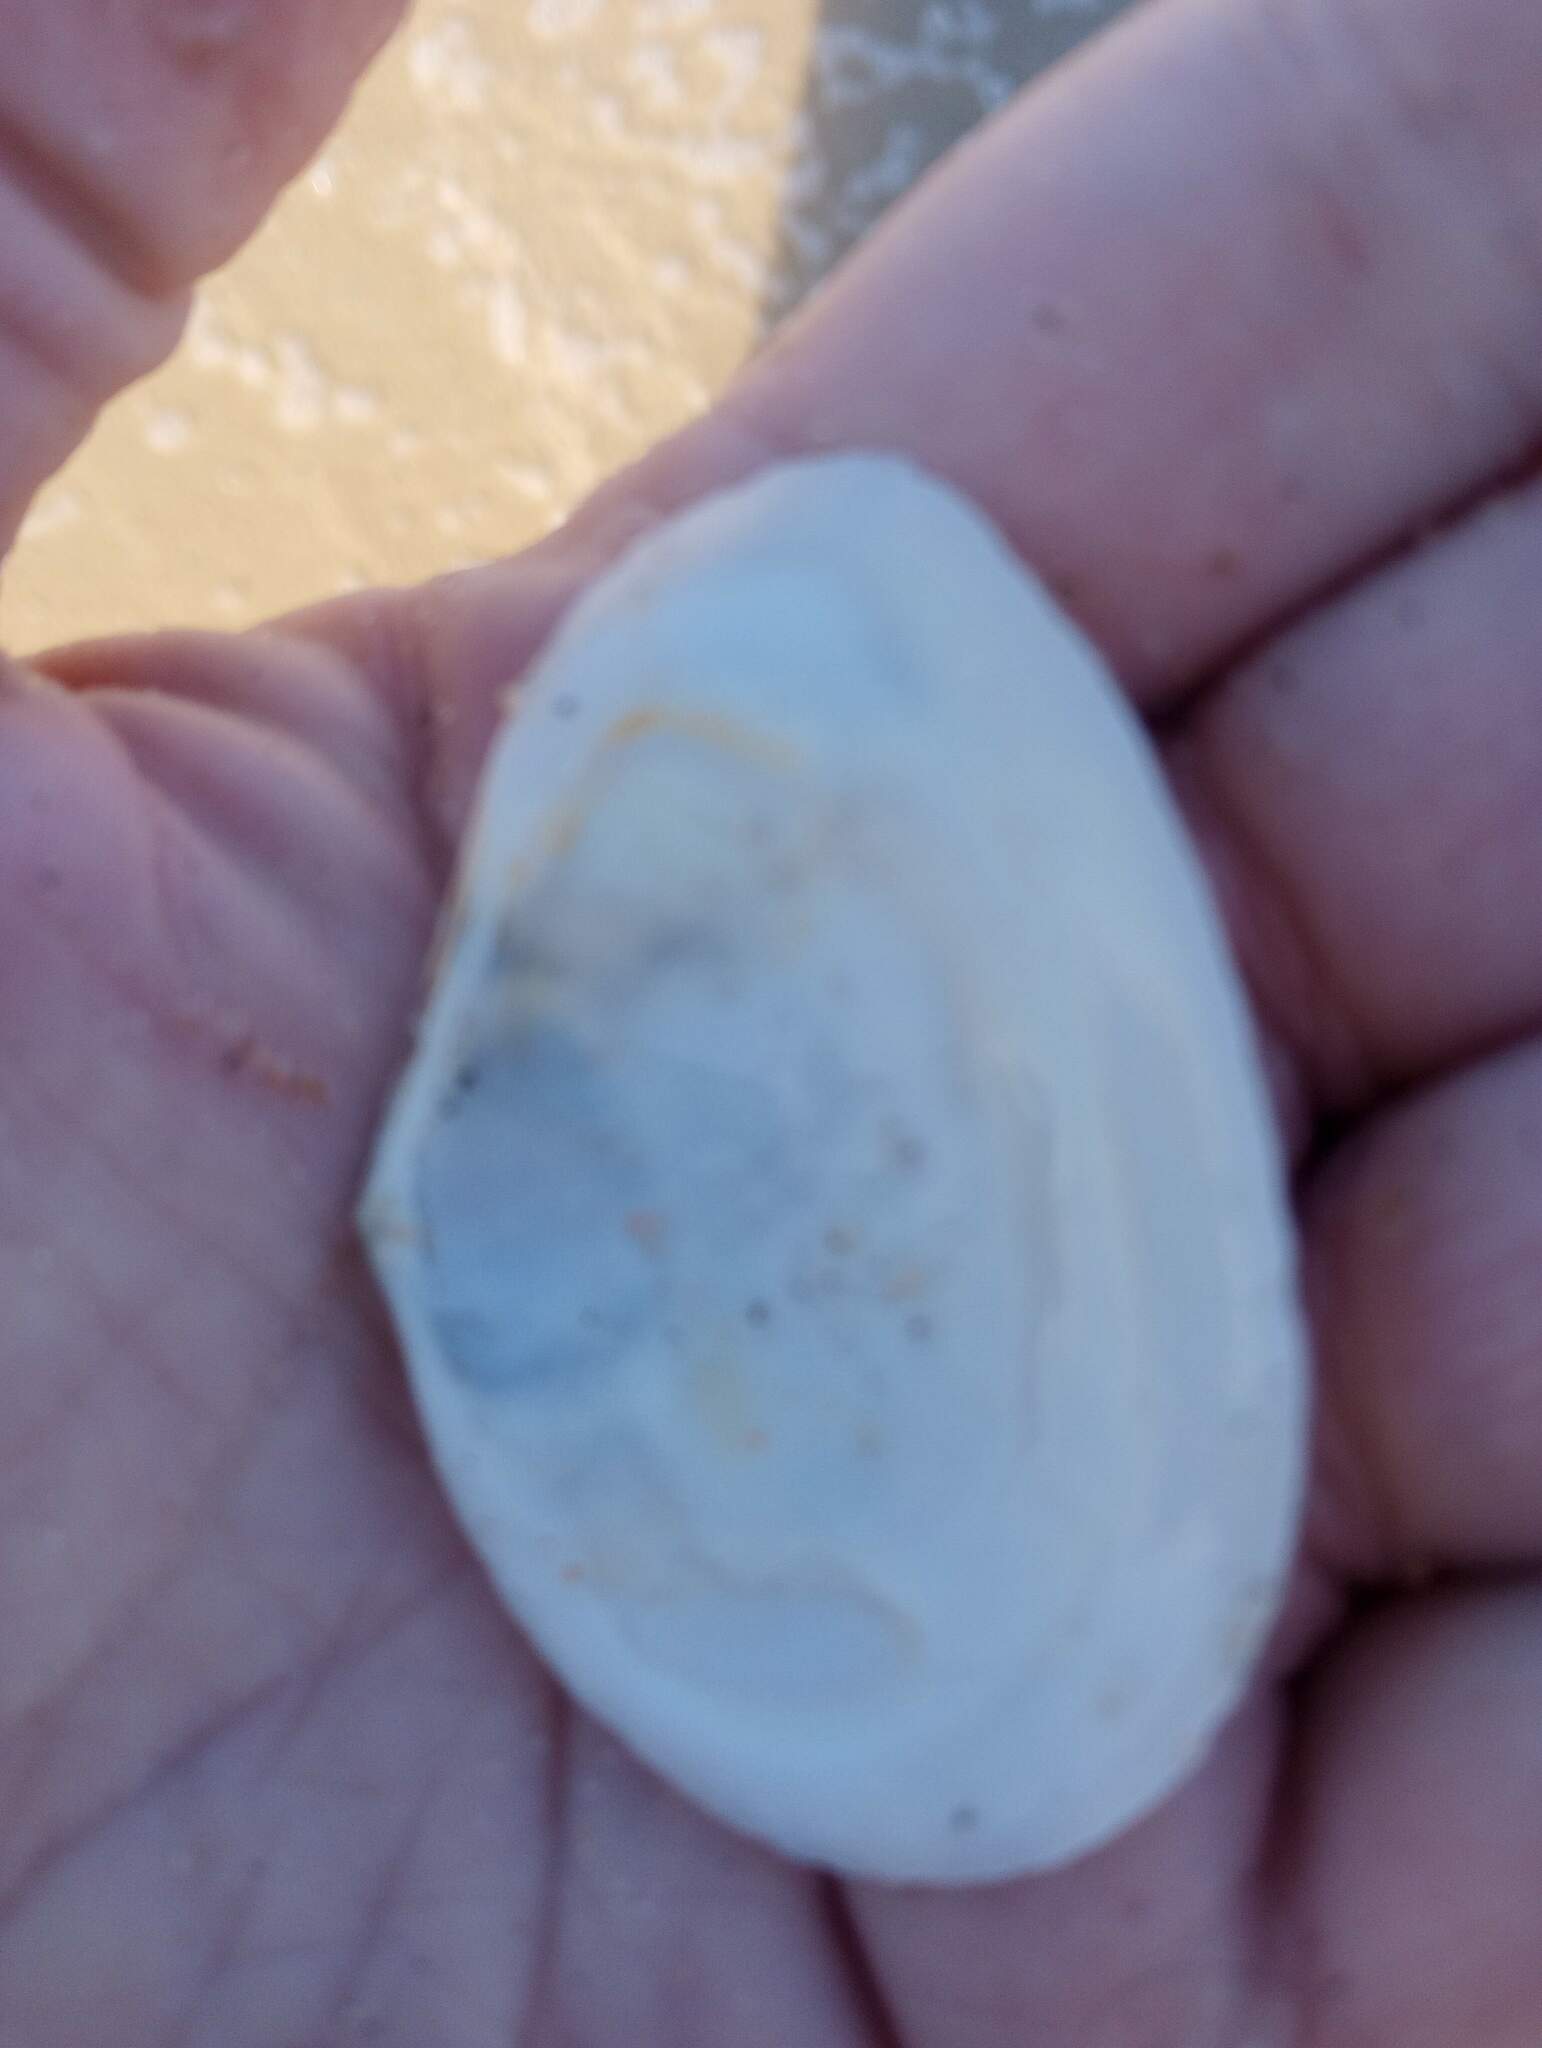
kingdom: Animalia
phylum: Mollusca
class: Bivalvia
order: Cardiida
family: Tellinidae
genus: Macoma
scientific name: Macoma nasuta
